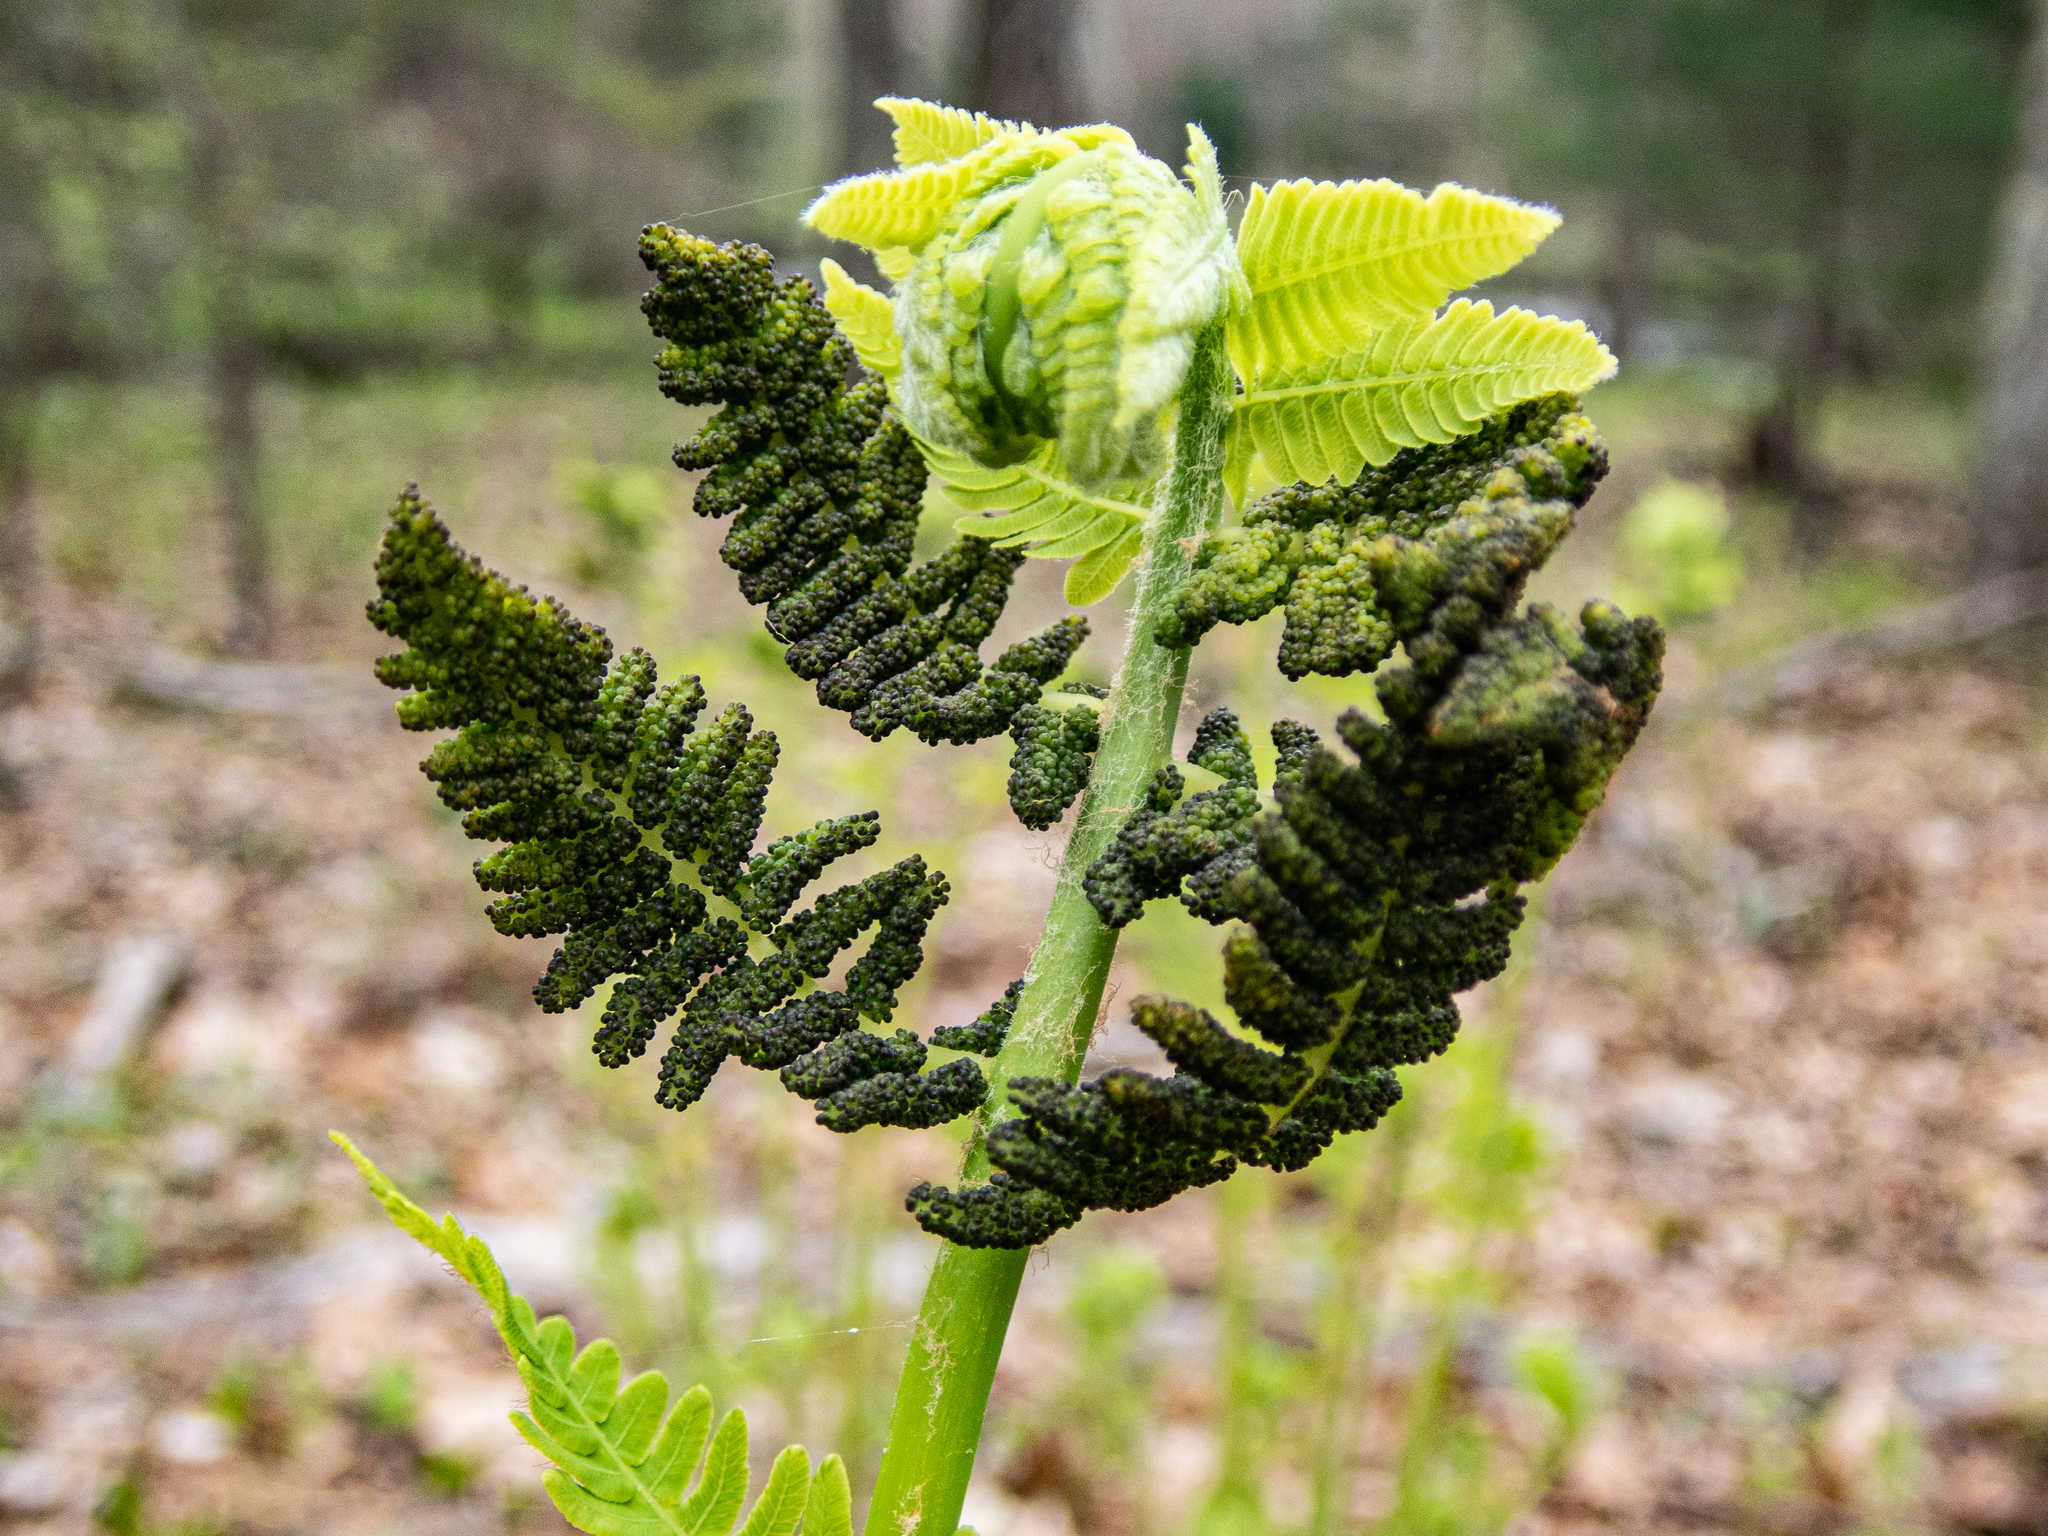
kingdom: Plantae
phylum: Tracheophyta
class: Polypodiopsida
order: Osmundales
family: Osmundaceae
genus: Claytosmunda
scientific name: Claytosmunda claytoniana
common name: Clayton's fern
